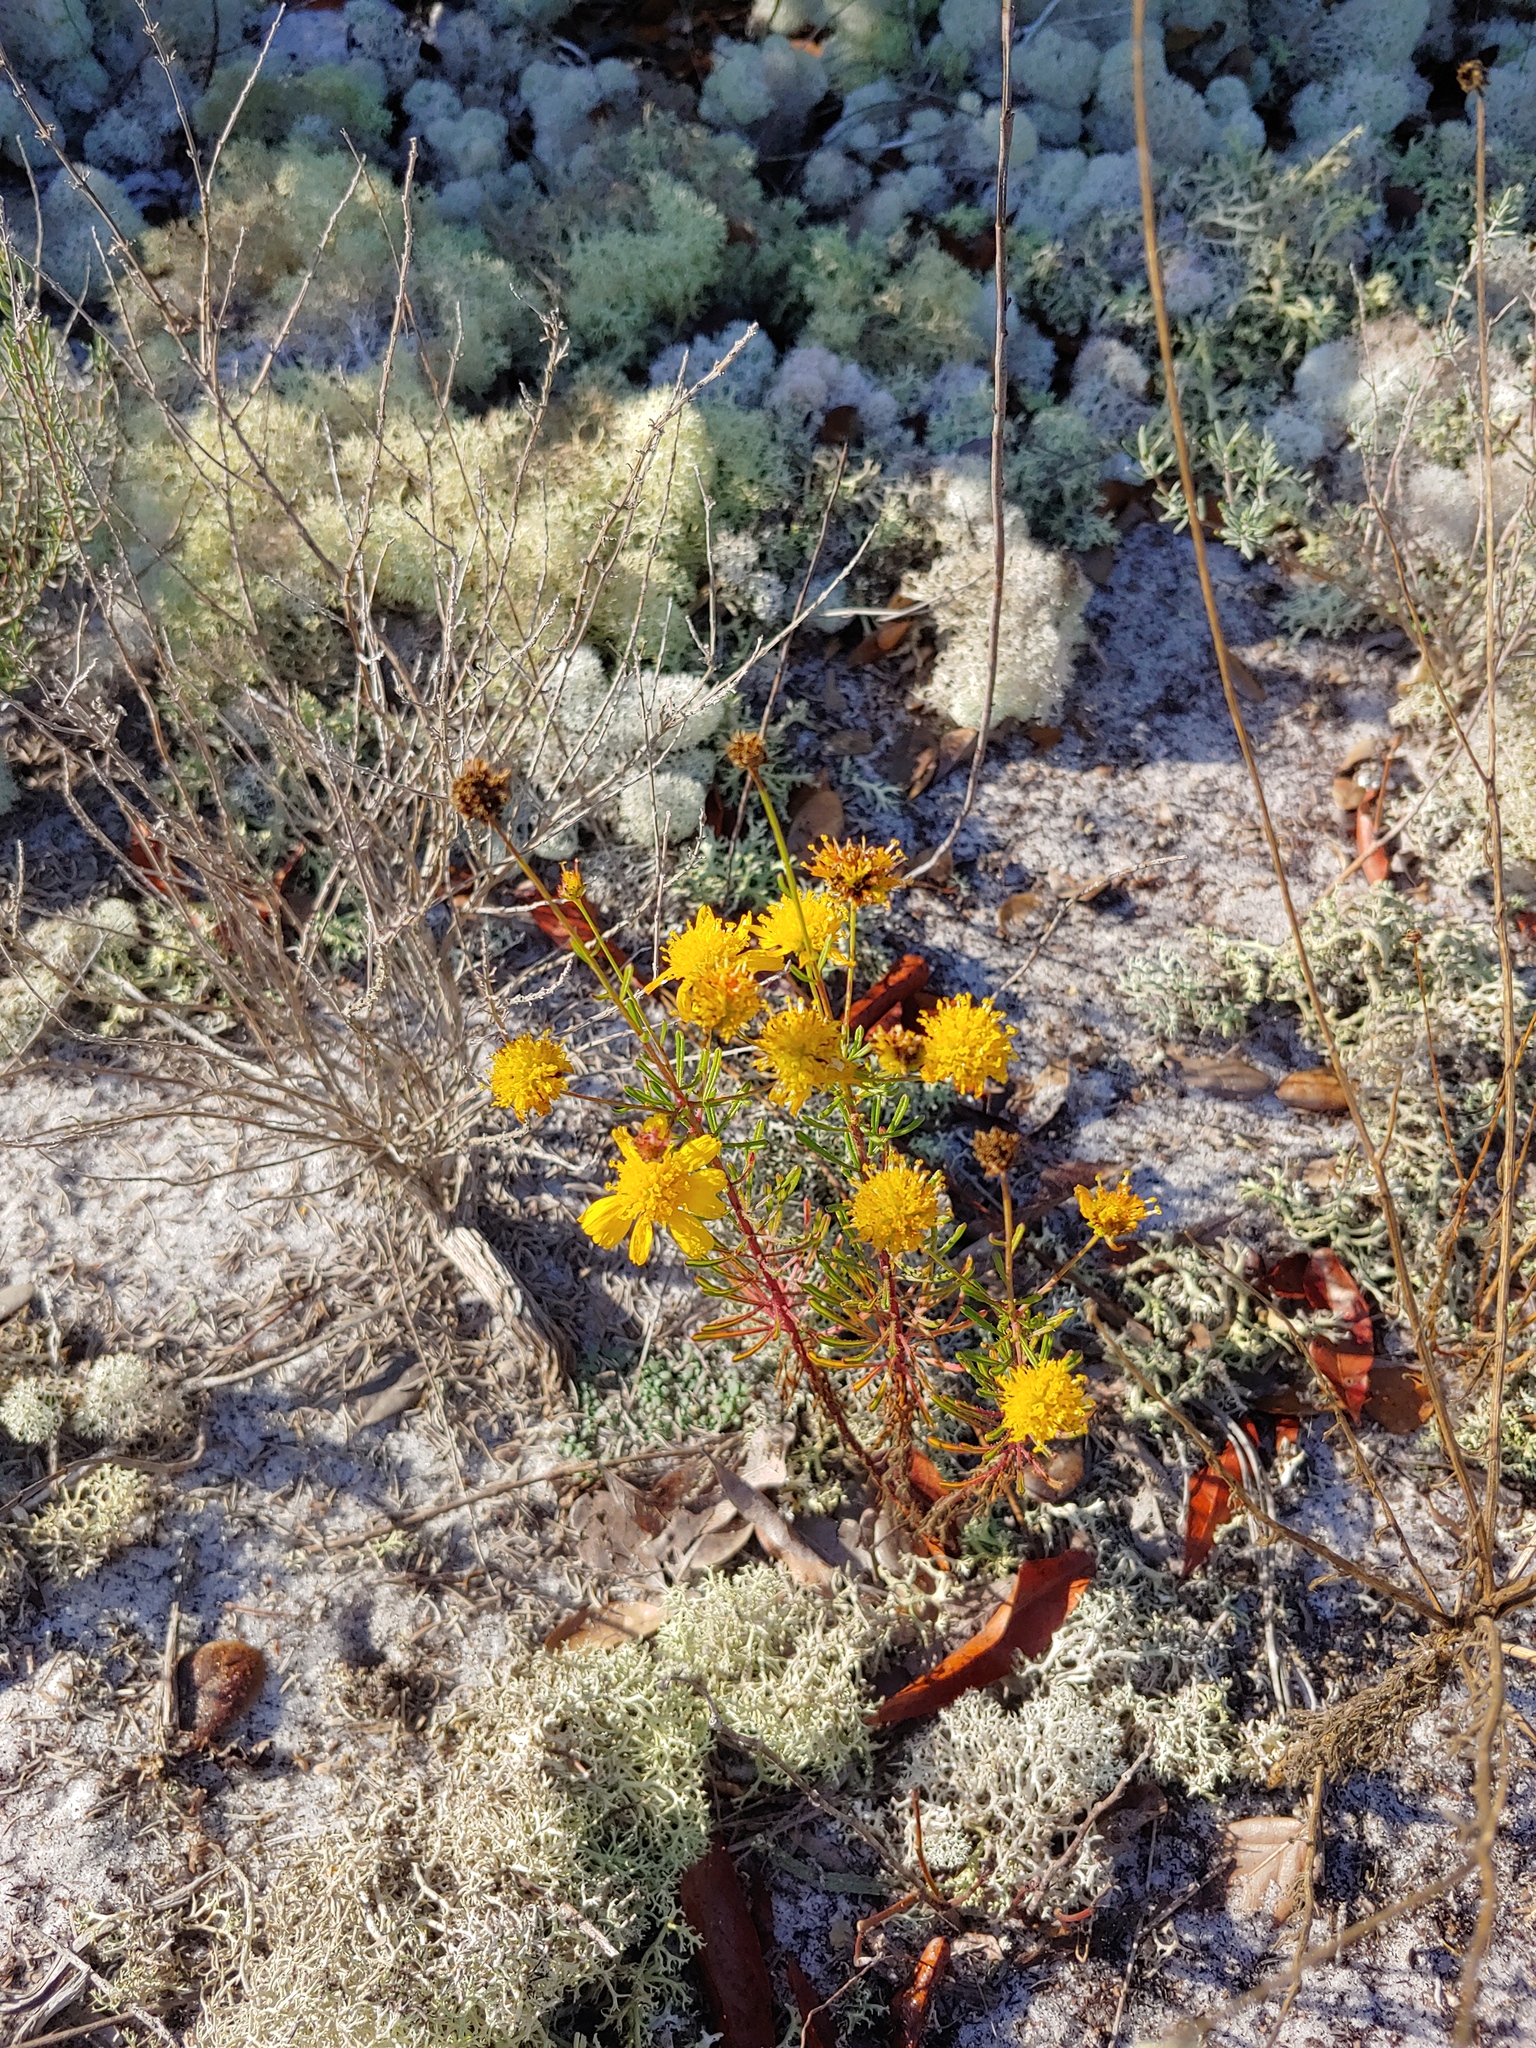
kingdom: Plantae
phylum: Tracheophyta
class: Magnoliopsida
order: Asterales
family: Asteraceae
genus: Balduina
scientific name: Balduina angustifolia
